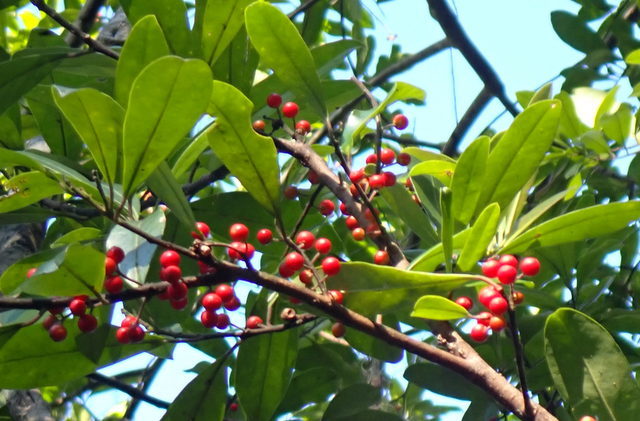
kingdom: Plantae
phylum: Tracheophyta
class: Magnoliopsida
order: Aquifoliales
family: Aquifoliaceae
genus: Ilex
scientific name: Ilex cassine
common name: Dahoon
